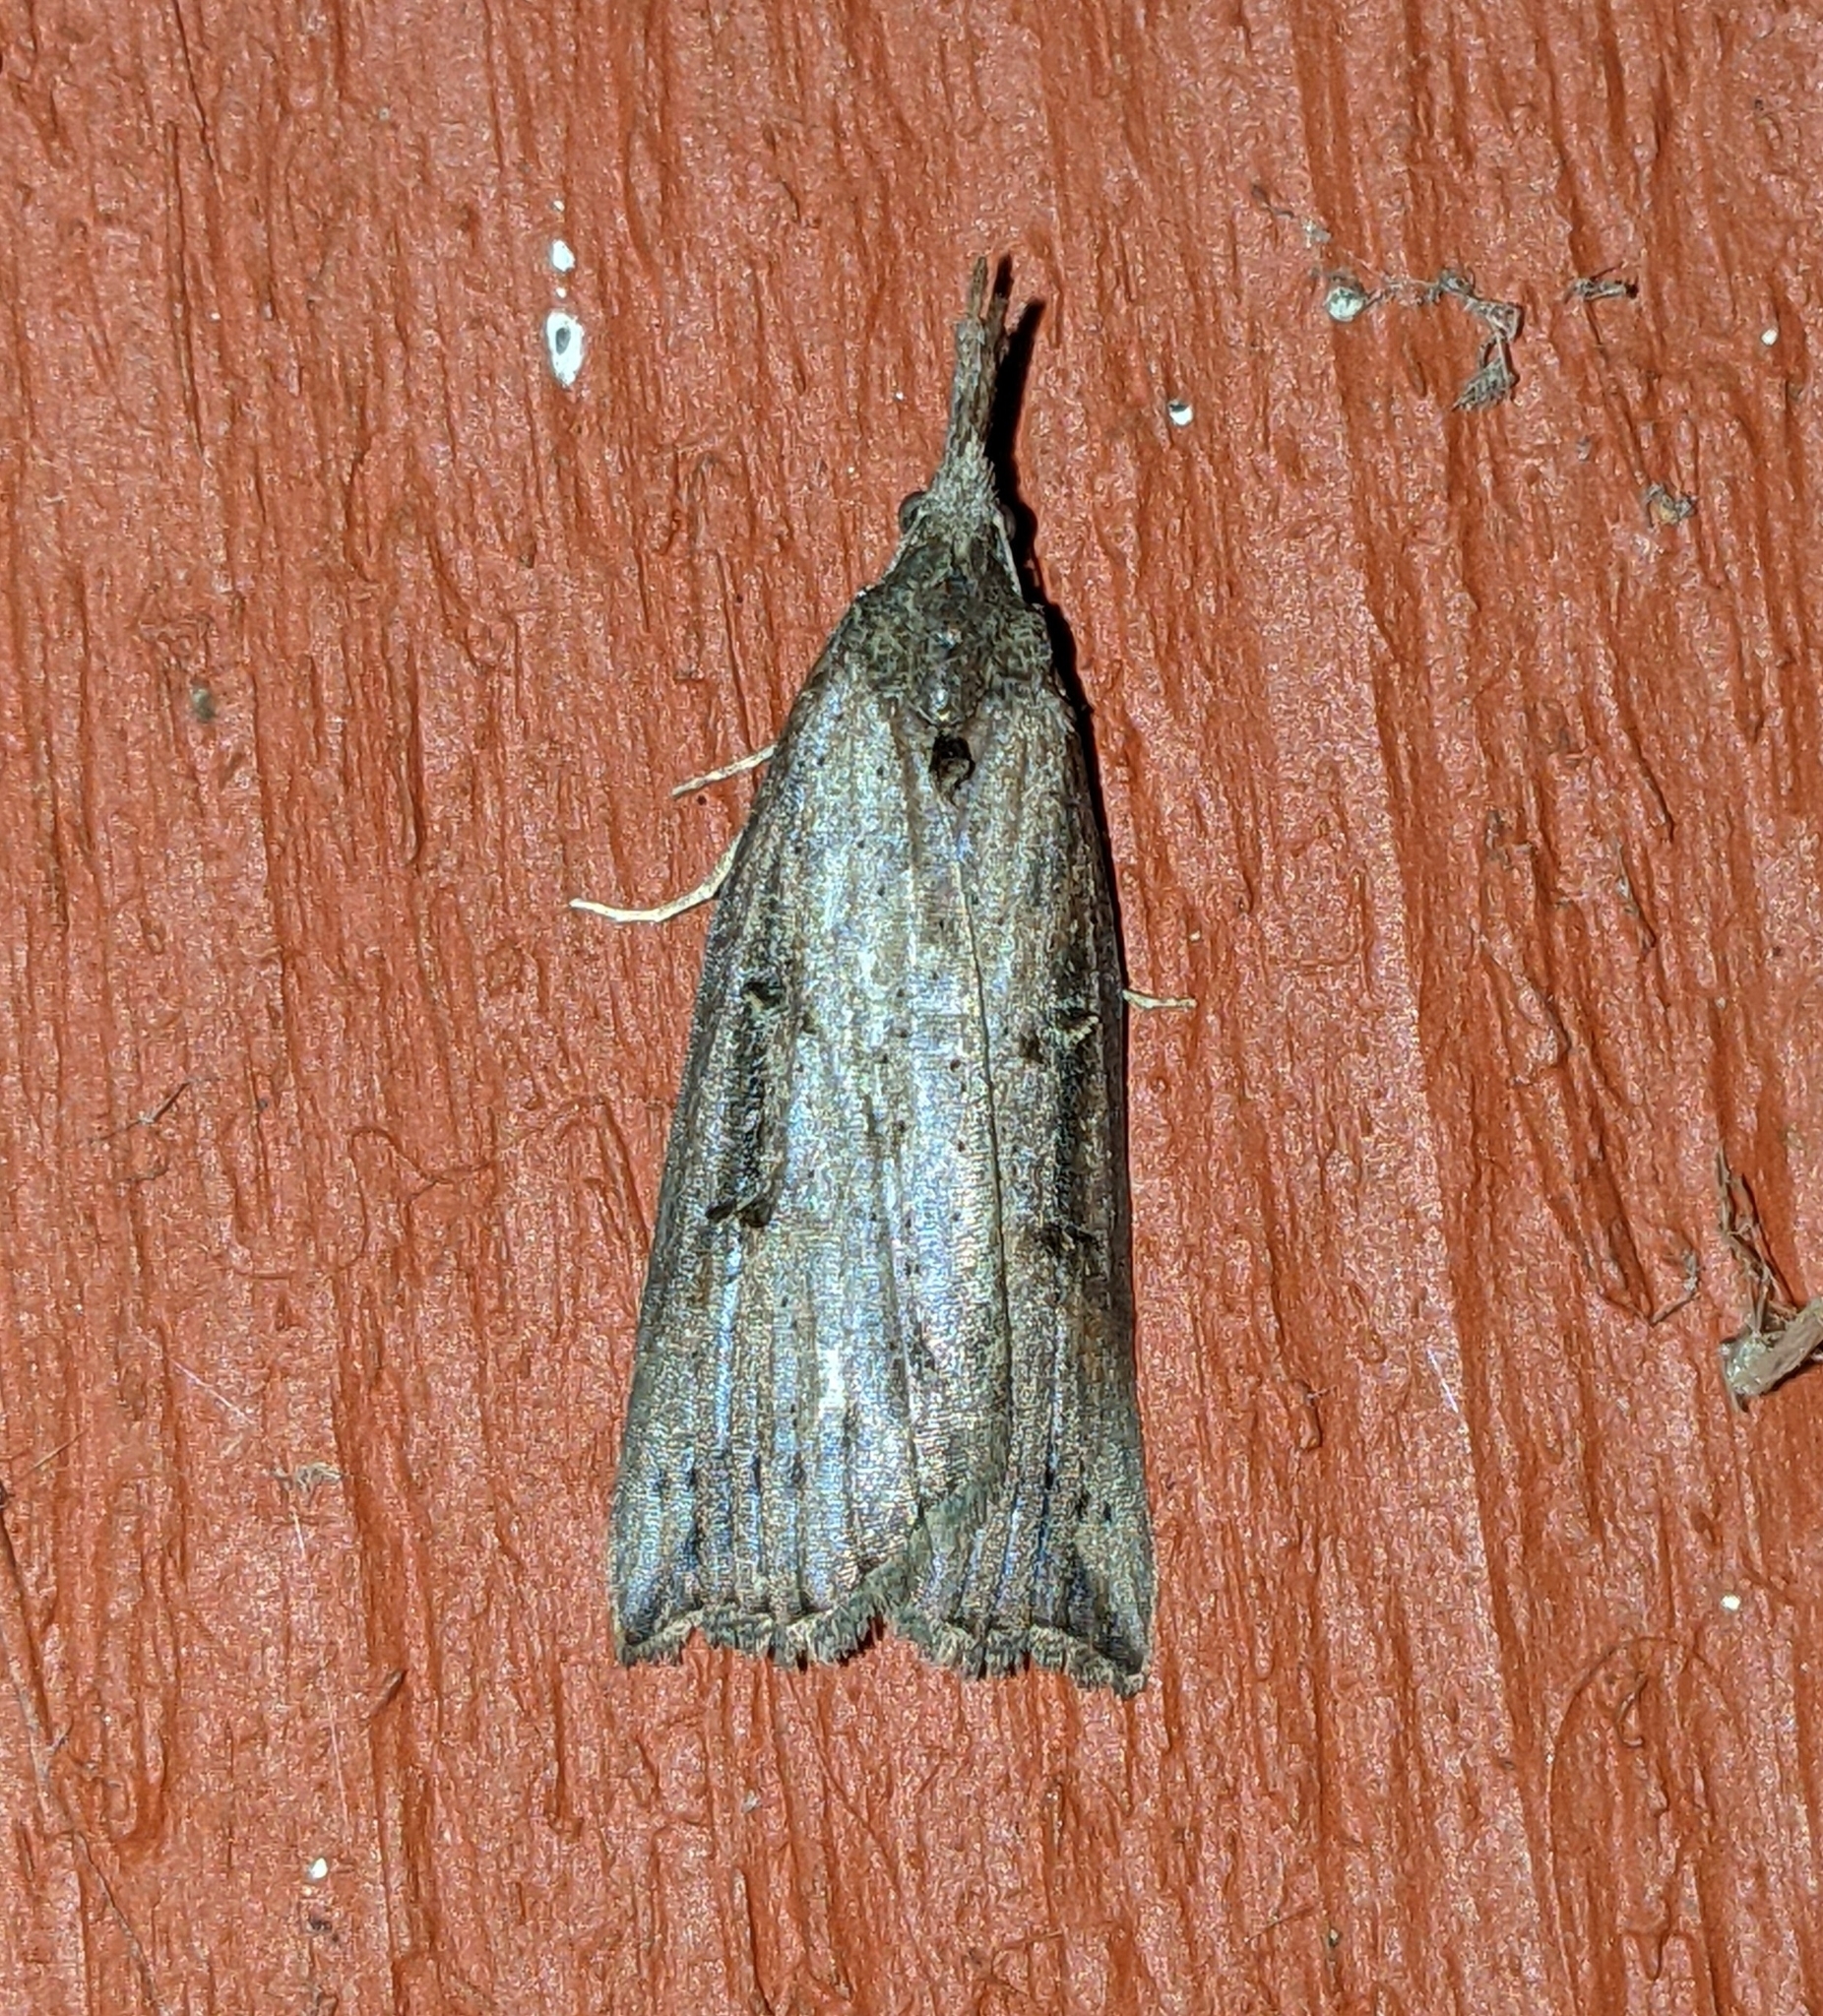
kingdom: Animalia
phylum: Arthropoda
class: Insecta
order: Lepidoptera
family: Erebidae
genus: Hypena
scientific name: Hypena californica
